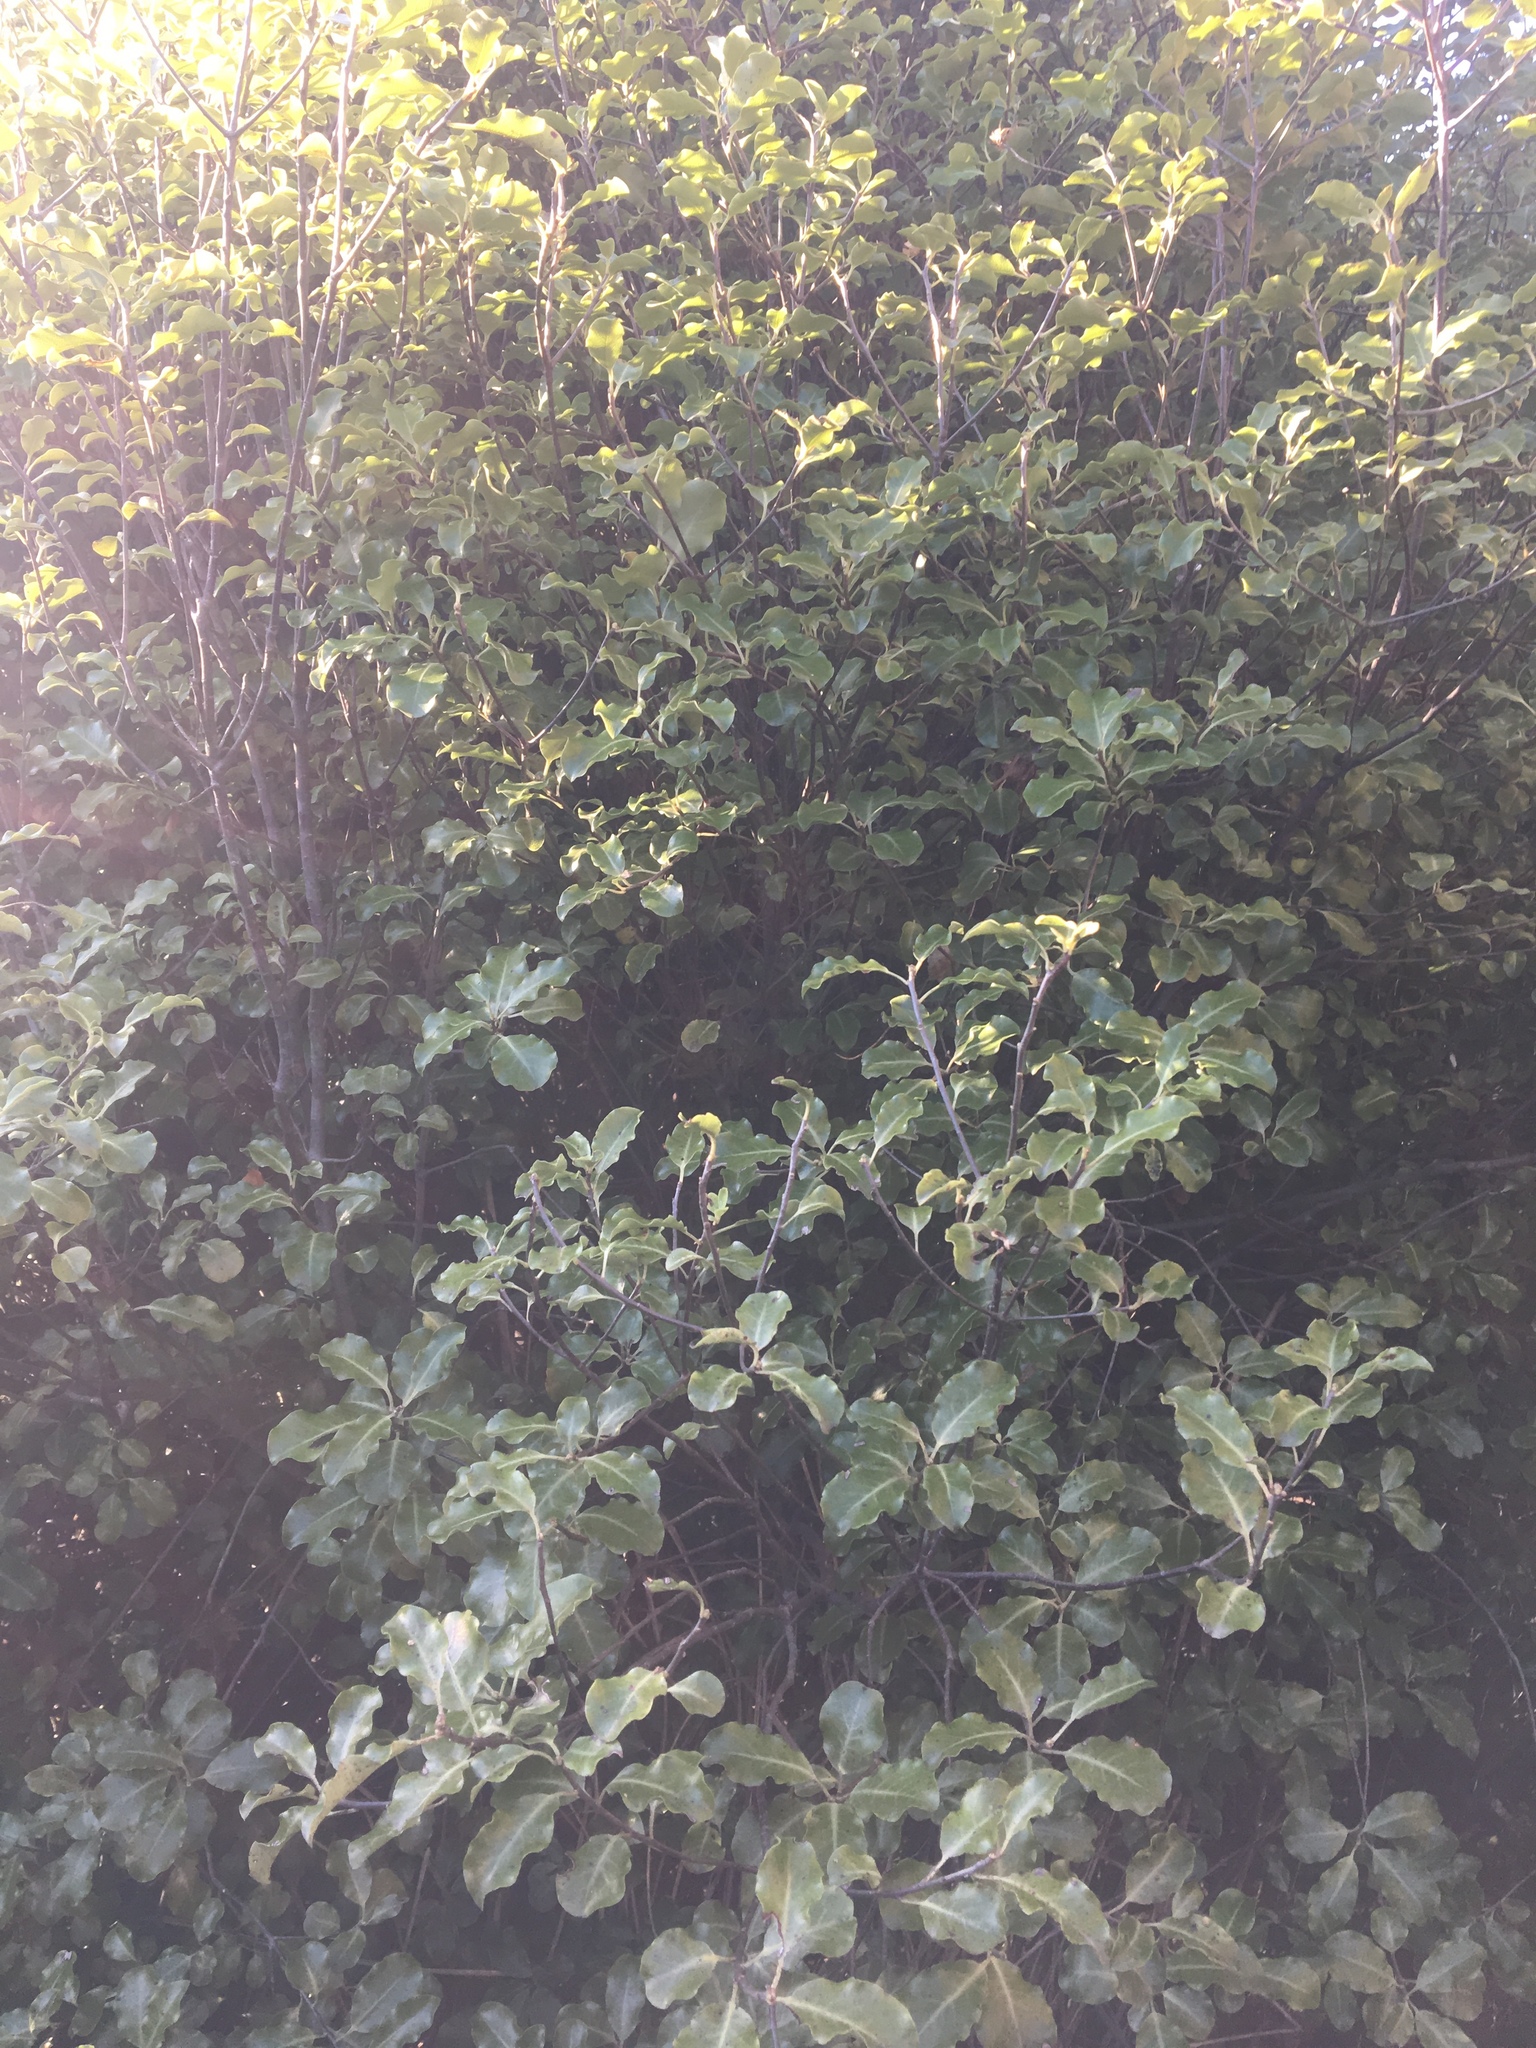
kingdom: Plantae
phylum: Tracheophyta
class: Magnoliopsida
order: Apiales
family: Pittosporaceae
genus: Pittosporum
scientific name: Pittosporum tenuifolium
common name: Kohuhu
